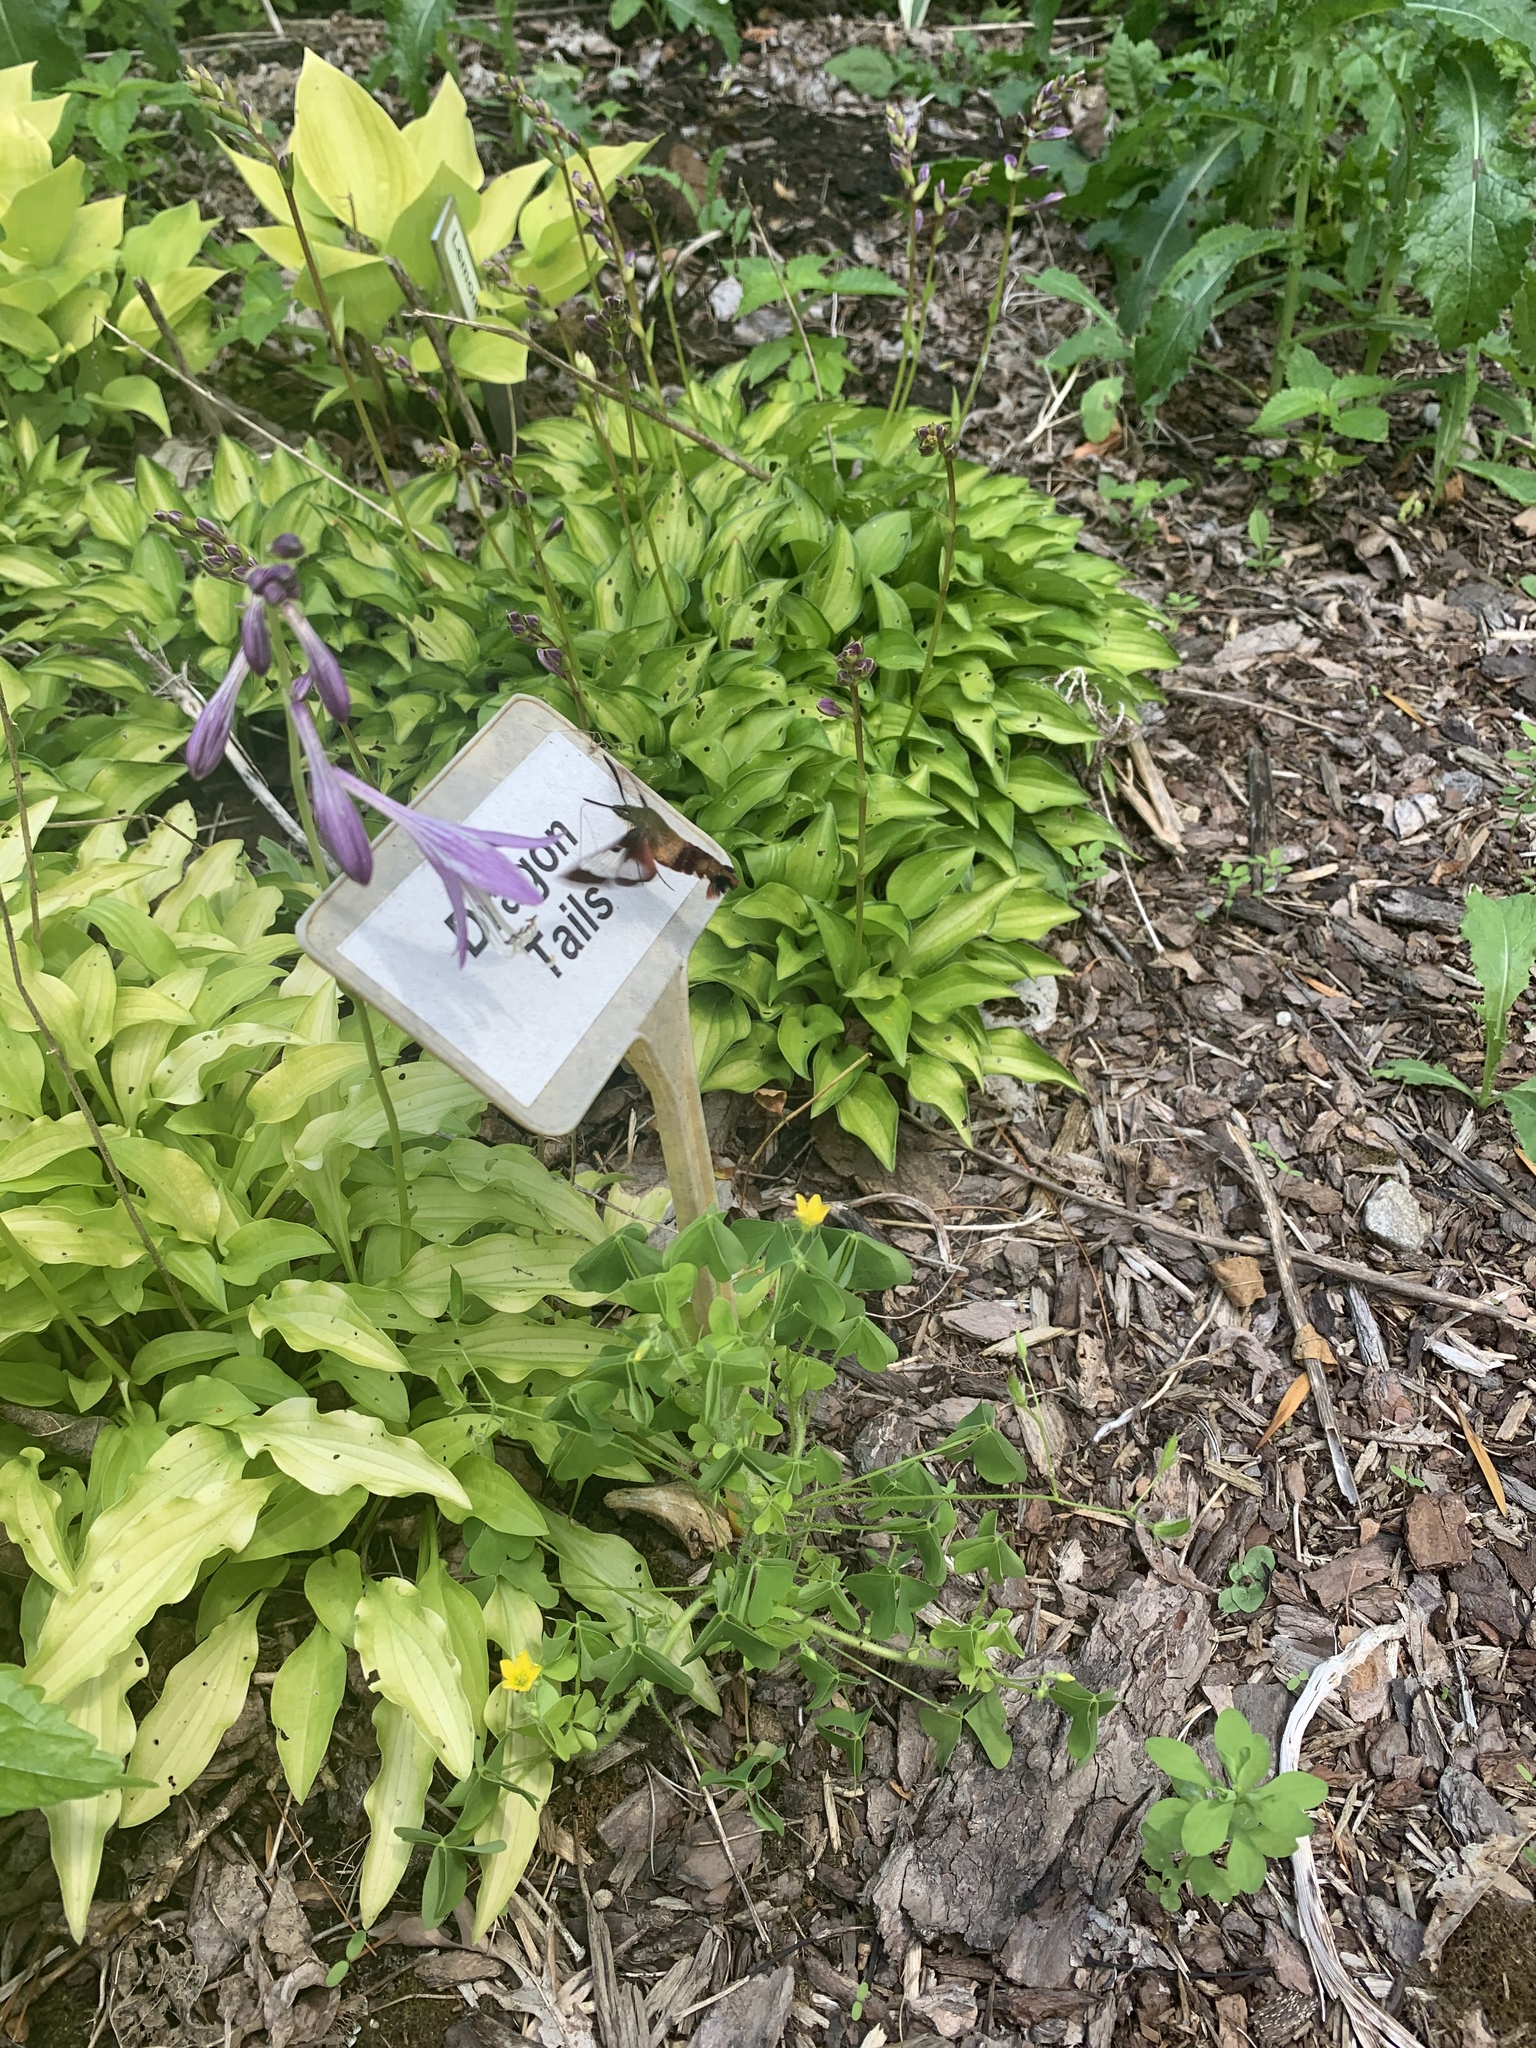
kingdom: Animalia
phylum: Arthropoda
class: Insecta
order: Lepidoptera
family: Sphingidae
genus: Hemaris
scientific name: Hemaris thysbe
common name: Common clear-wing
